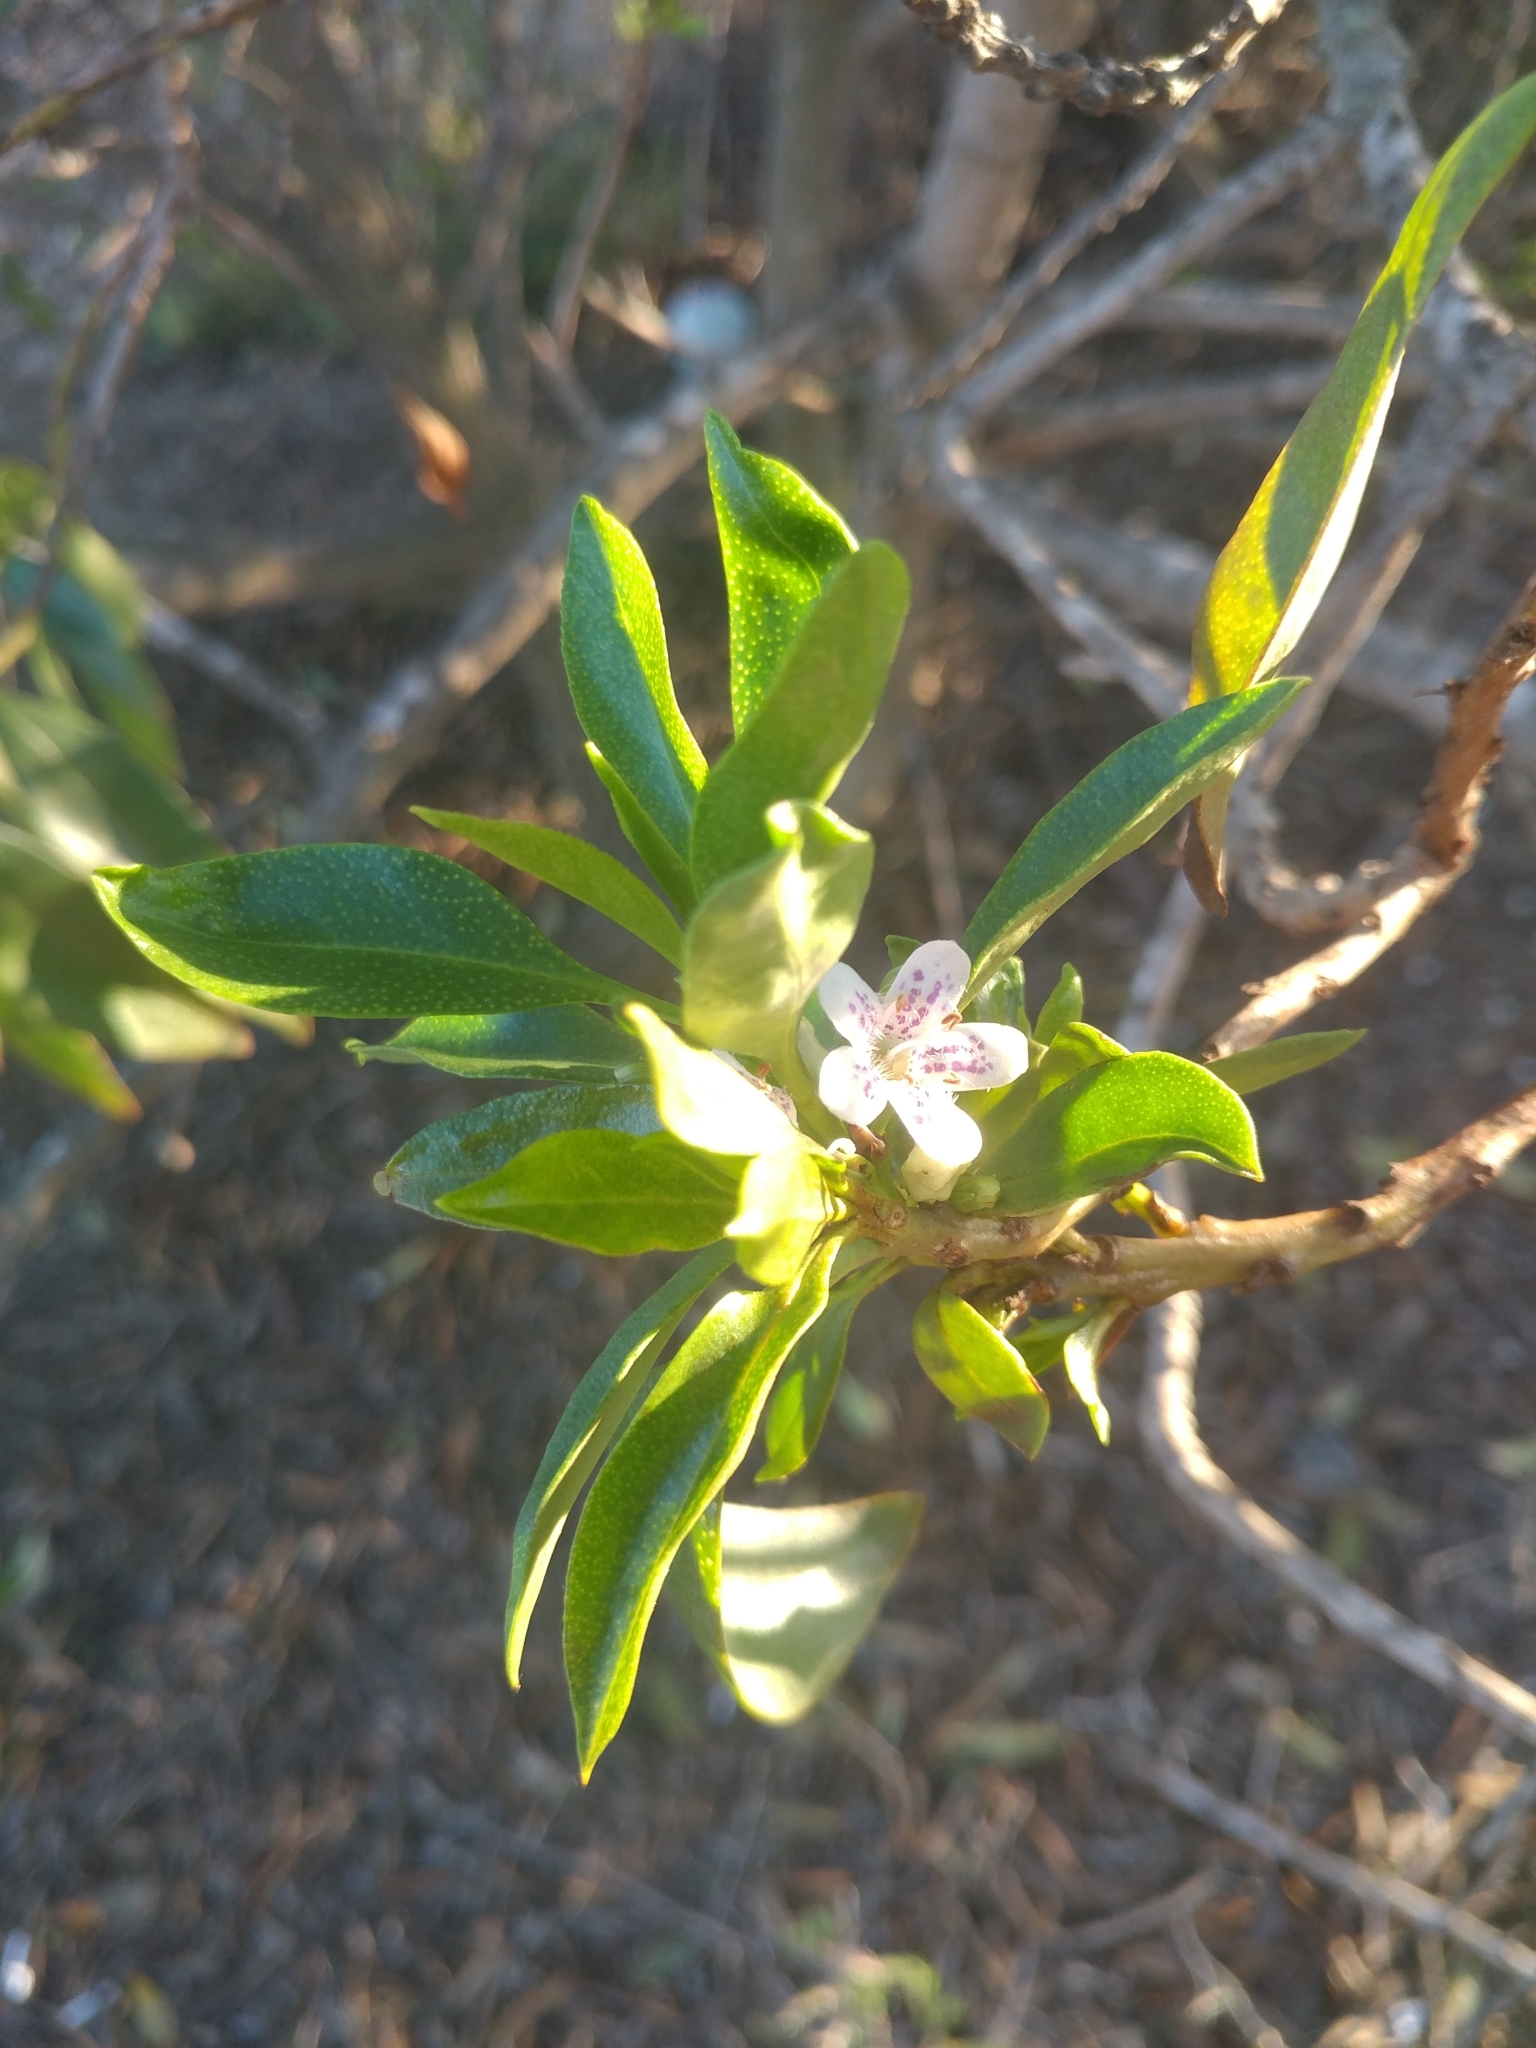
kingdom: Plantae
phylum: Tracheophyta
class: Magnoliopsida
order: Lamiales
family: Scrophulariaceae
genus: Myoporum
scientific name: Myoporum laetum
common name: Ngaio tree
